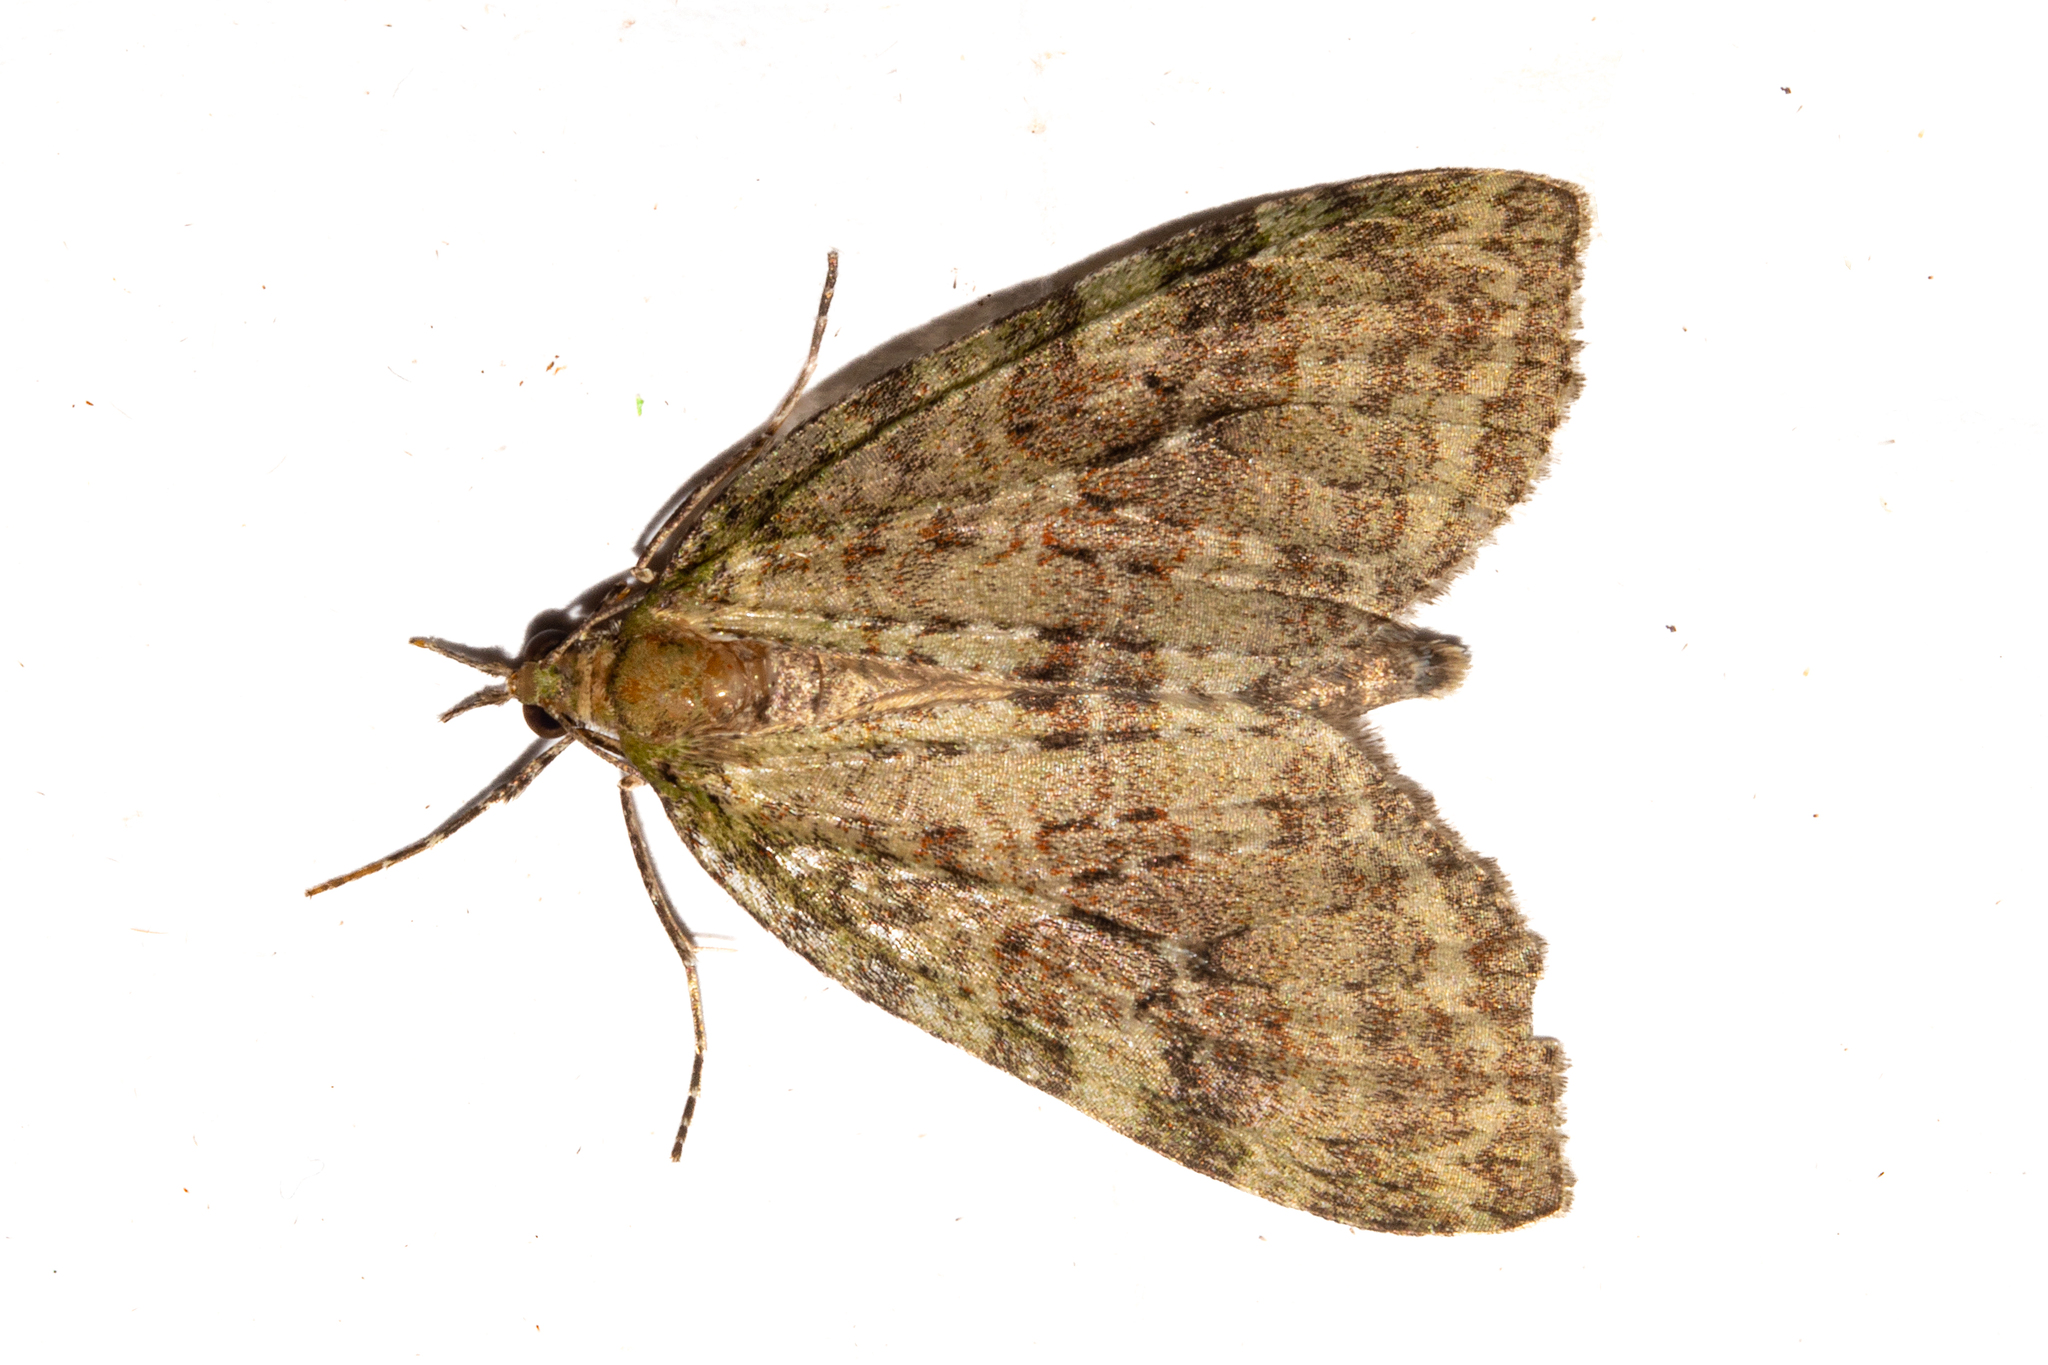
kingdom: Animalia
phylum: Arthropoda
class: Insecta
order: Lepidoptera
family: Geometridae
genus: Tatosoma
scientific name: Tatosoma transitaria
